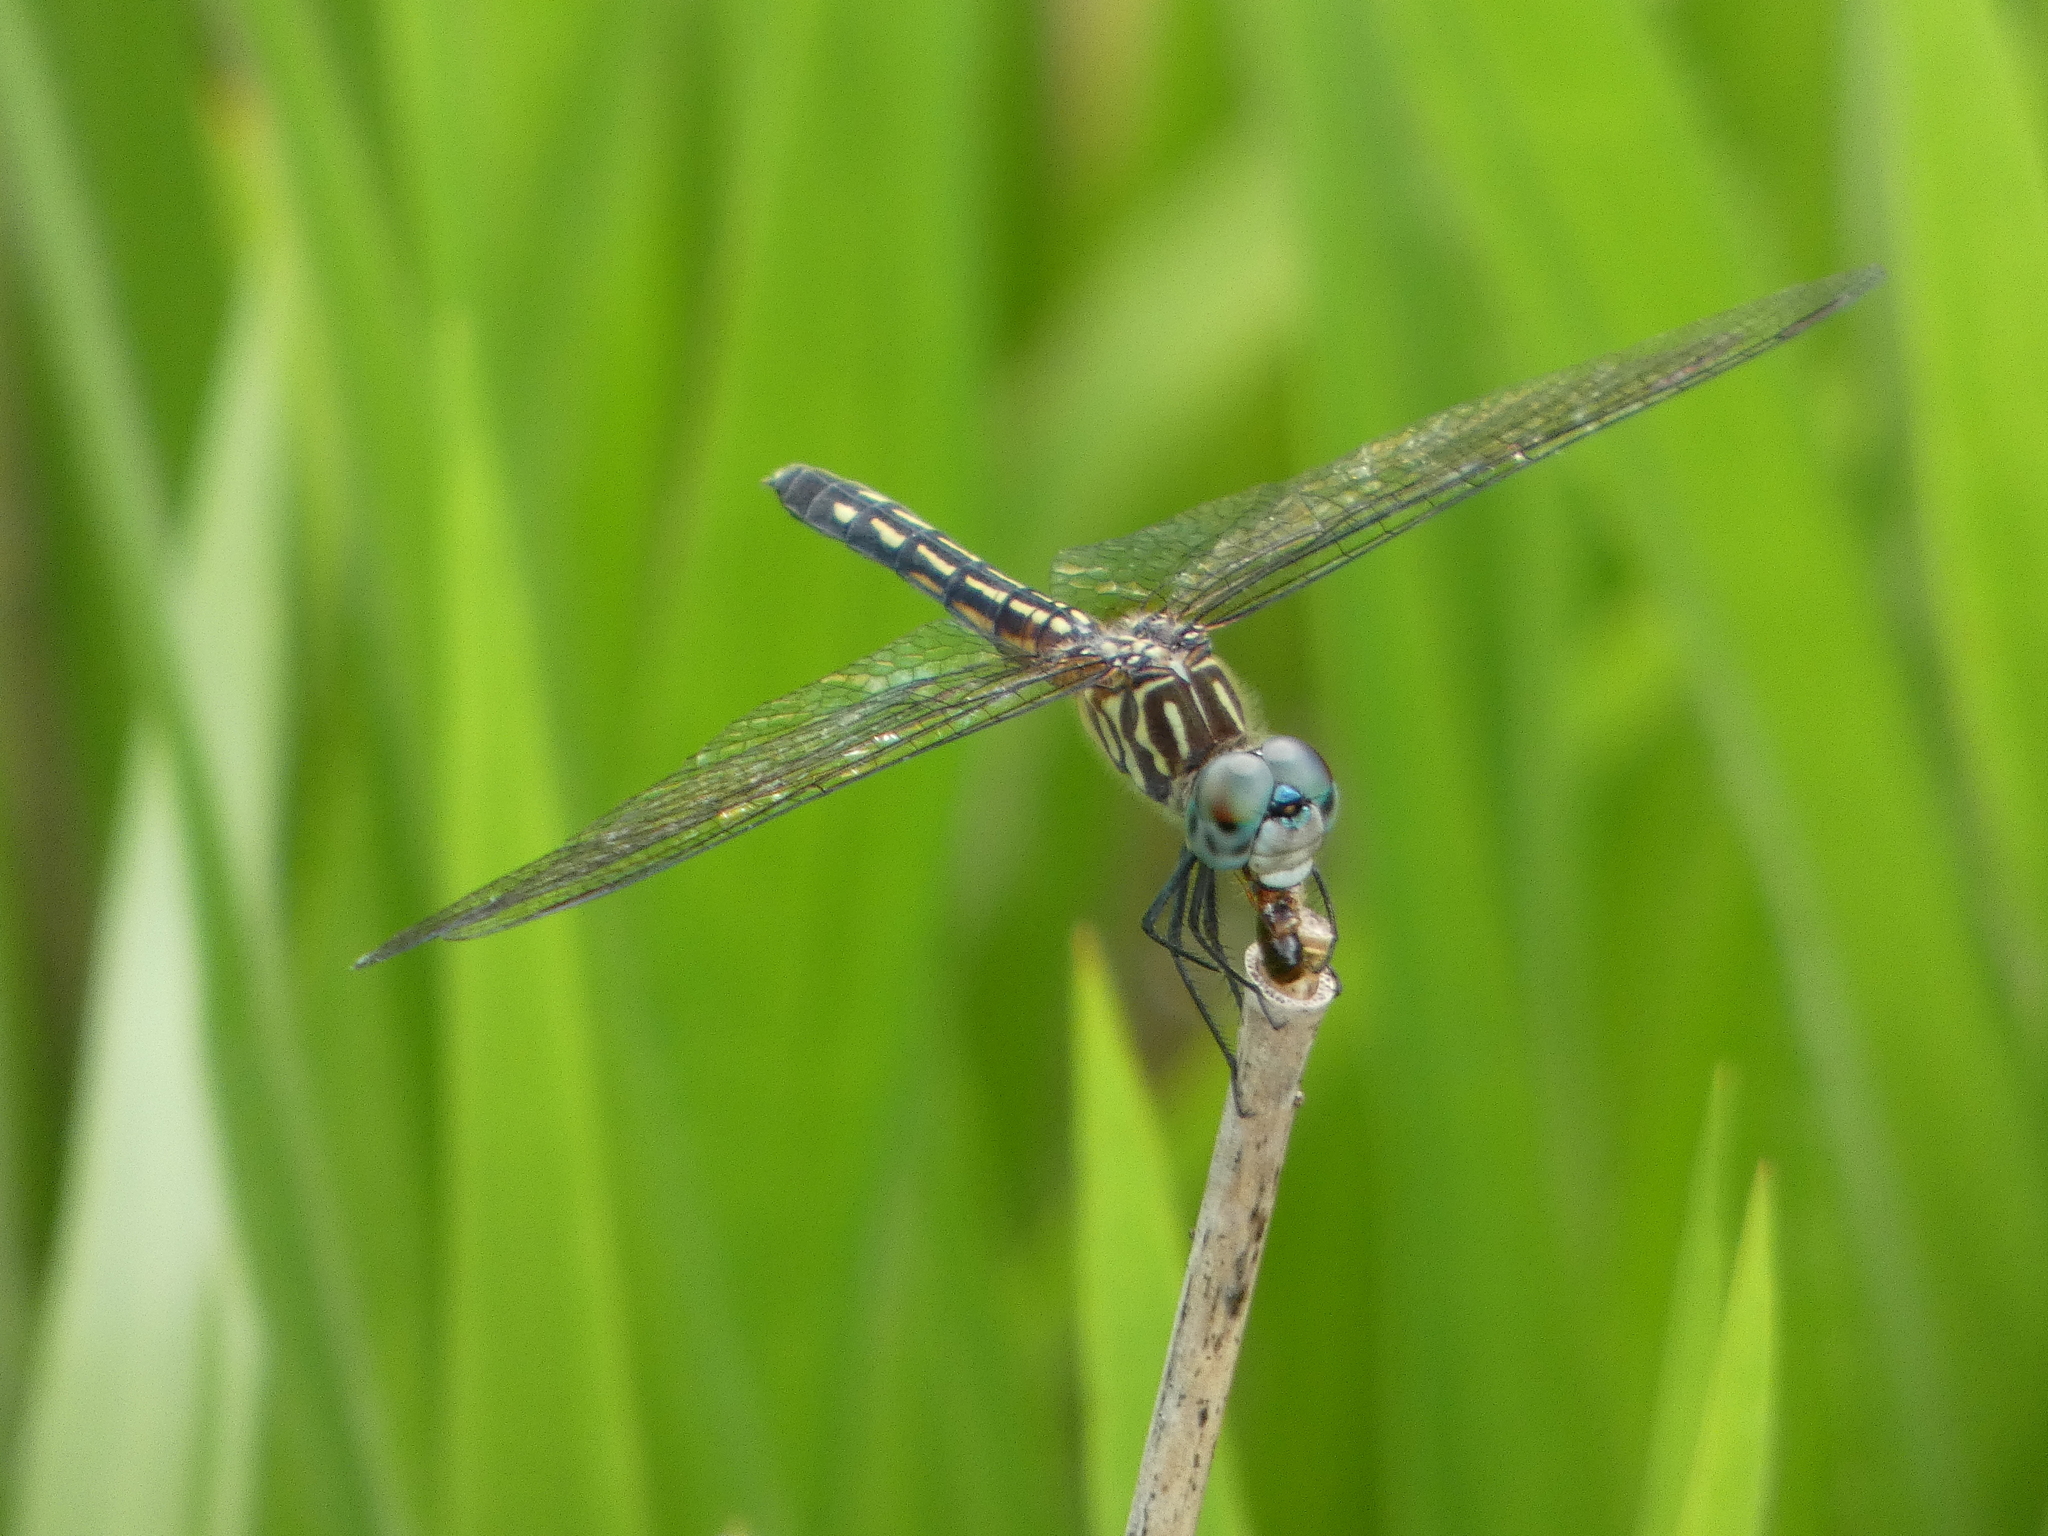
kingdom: Animalia
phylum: Arthropoda
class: Insecta
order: Odonata
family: Libellulidae
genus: Pachydiplax
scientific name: Pachydiplax longipennis
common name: Blue dasher
